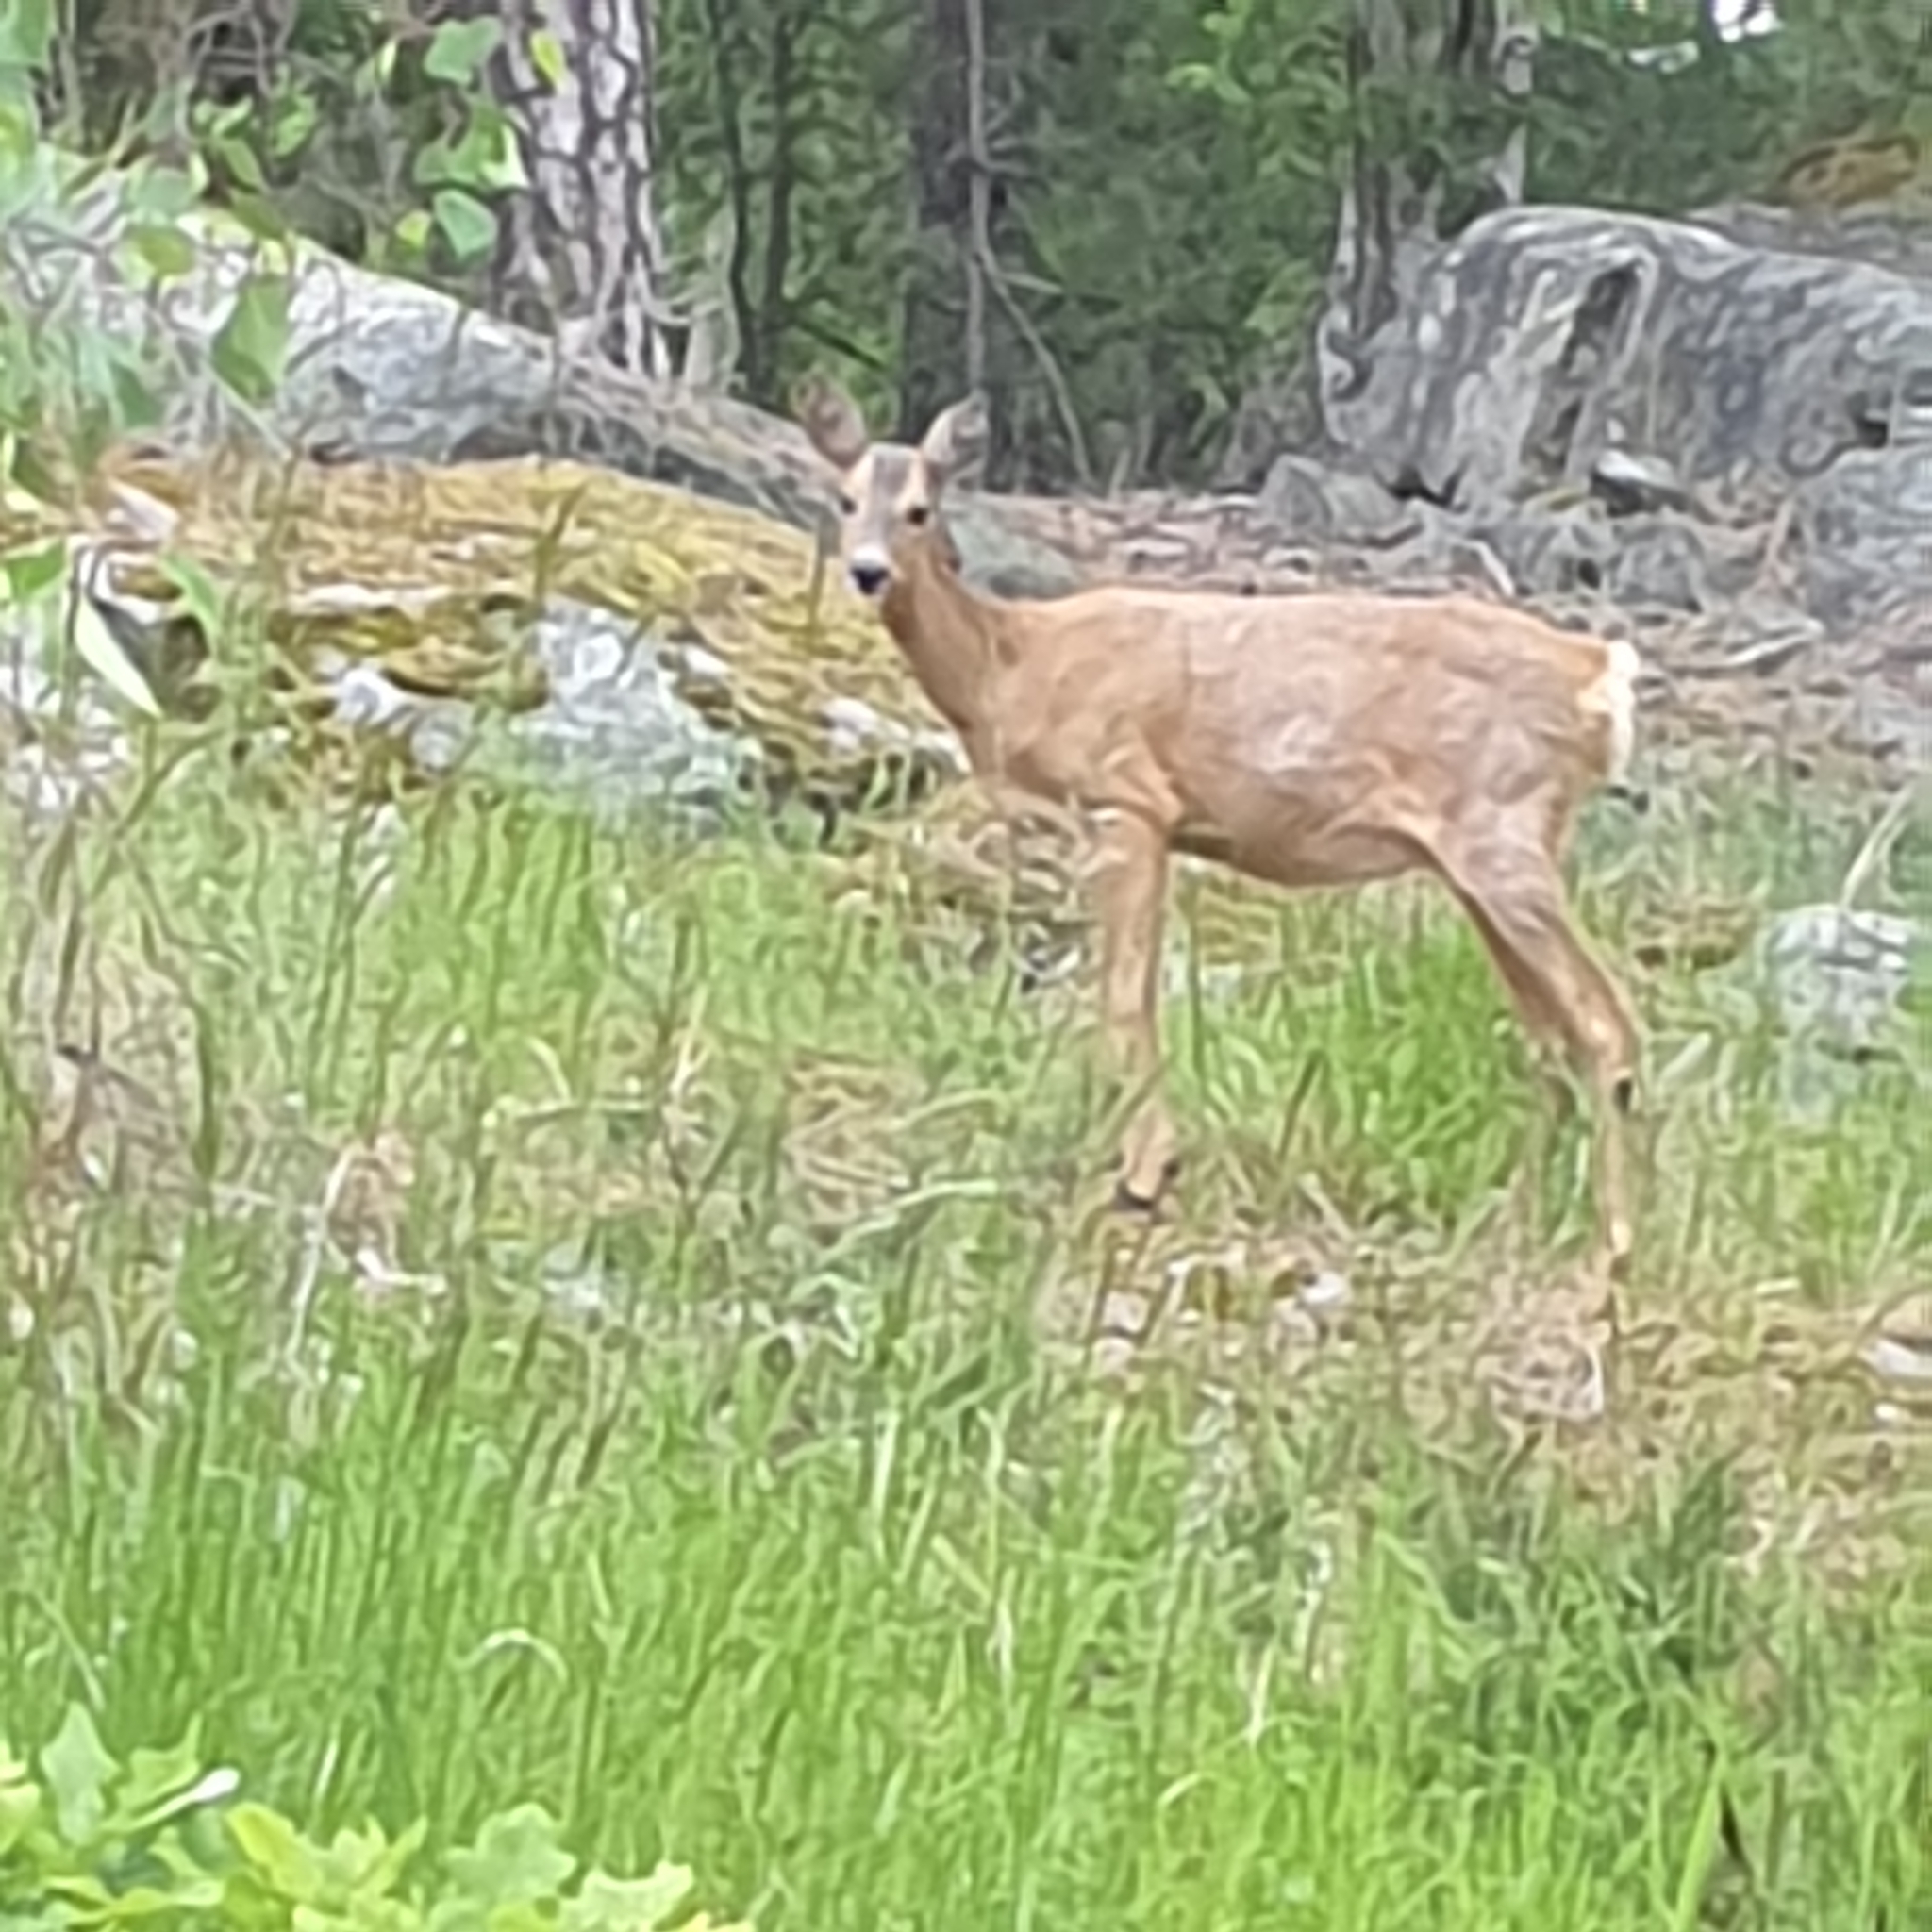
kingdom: Animalia
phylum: Chordata
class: Mammalia
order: Artiodactyla
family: Cervidae
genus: Capreolus
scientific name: Capreolus capreolus
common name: Western roe deer
